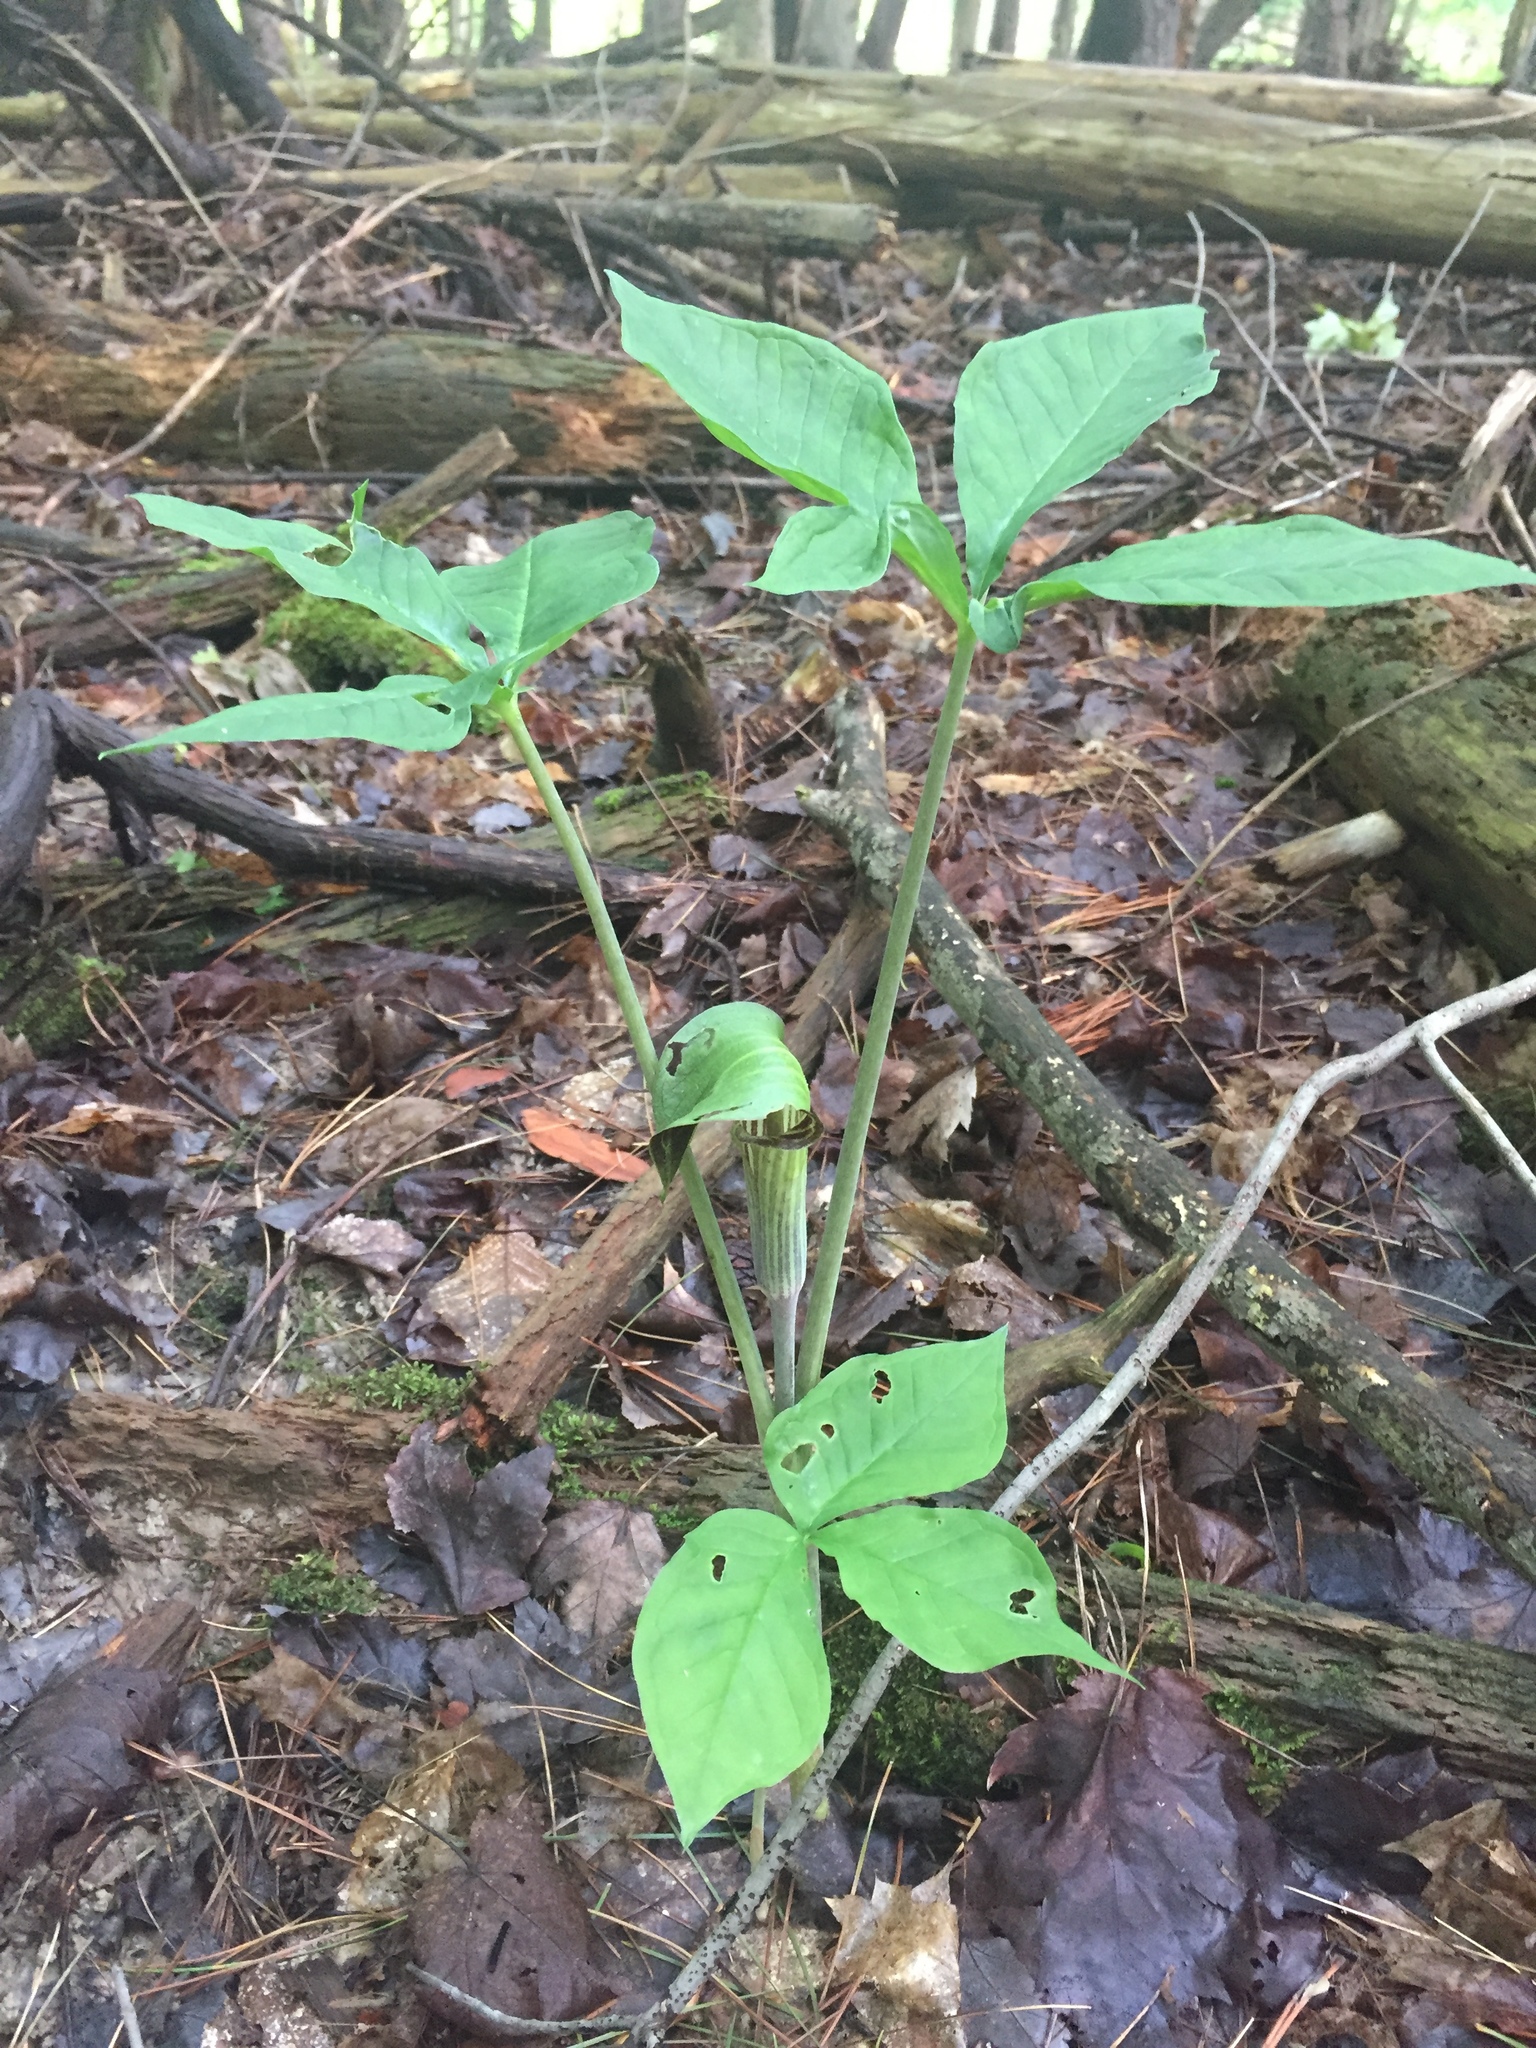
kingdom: Plantae
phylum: Tracheophyta
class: Liliopsida
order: Alismatales
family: Araceae
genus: Arisaema
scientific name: Arisaema triphyllum
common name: Jack-in-the-pulpit
